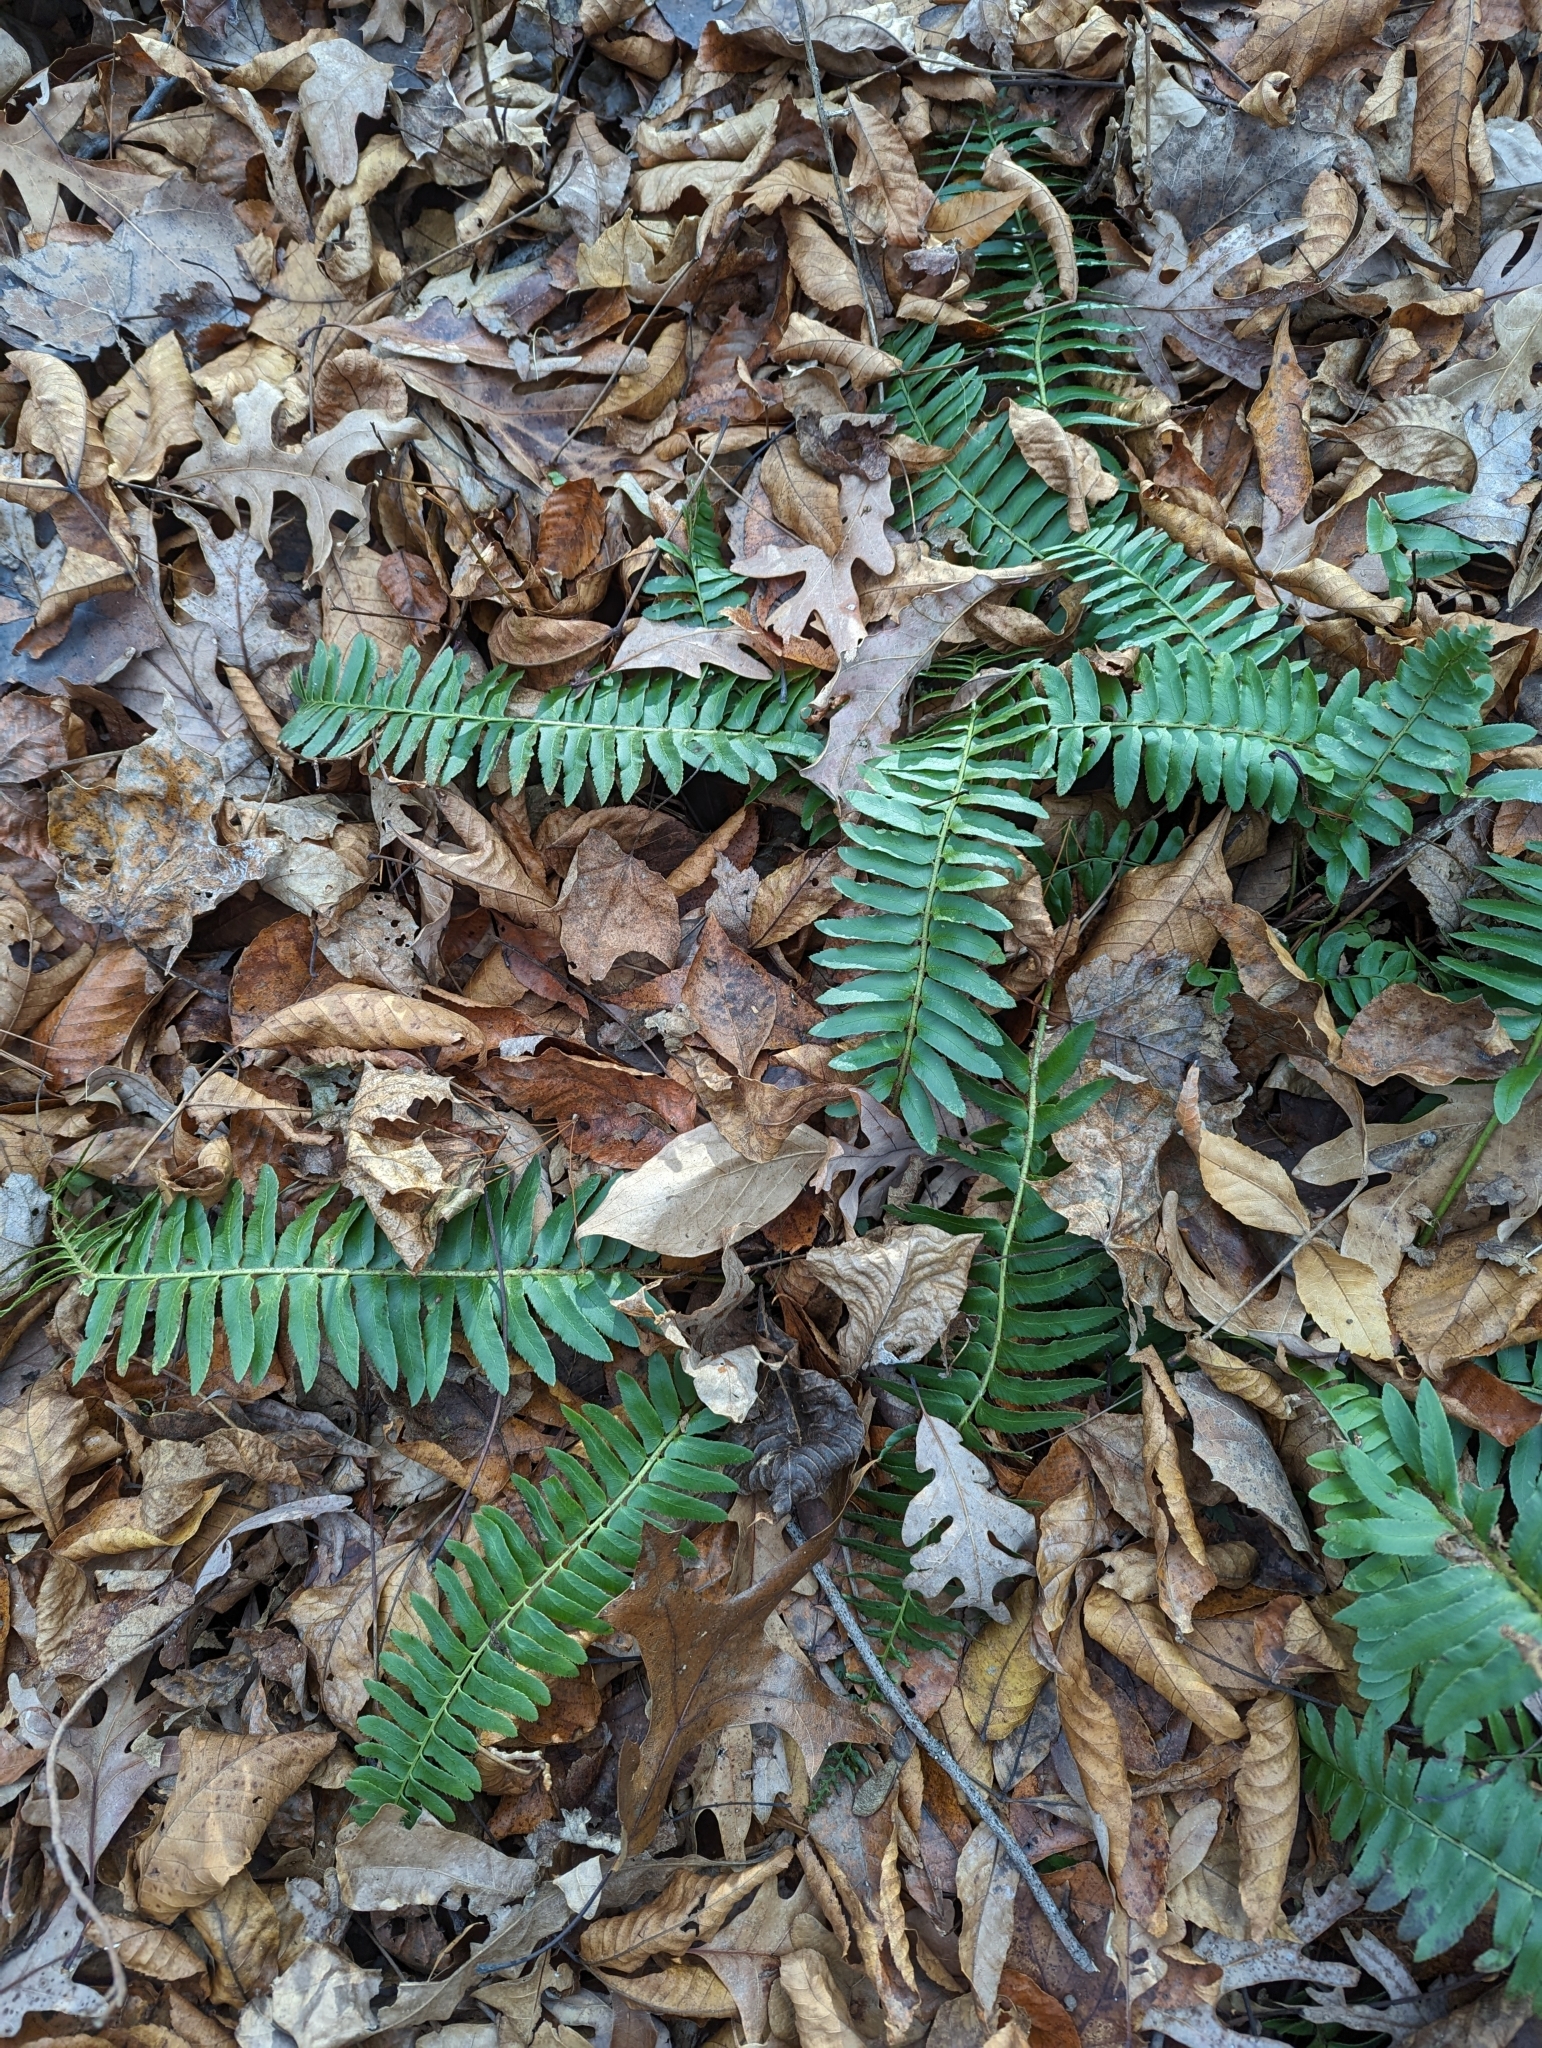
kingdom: Plantae
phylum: Tracheophyta
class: Polypodiopsida
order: Polypodiales
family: Dryopteridaceae
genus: Polystichum
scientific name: Polystichum acrostichoides
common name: Christmas fern
